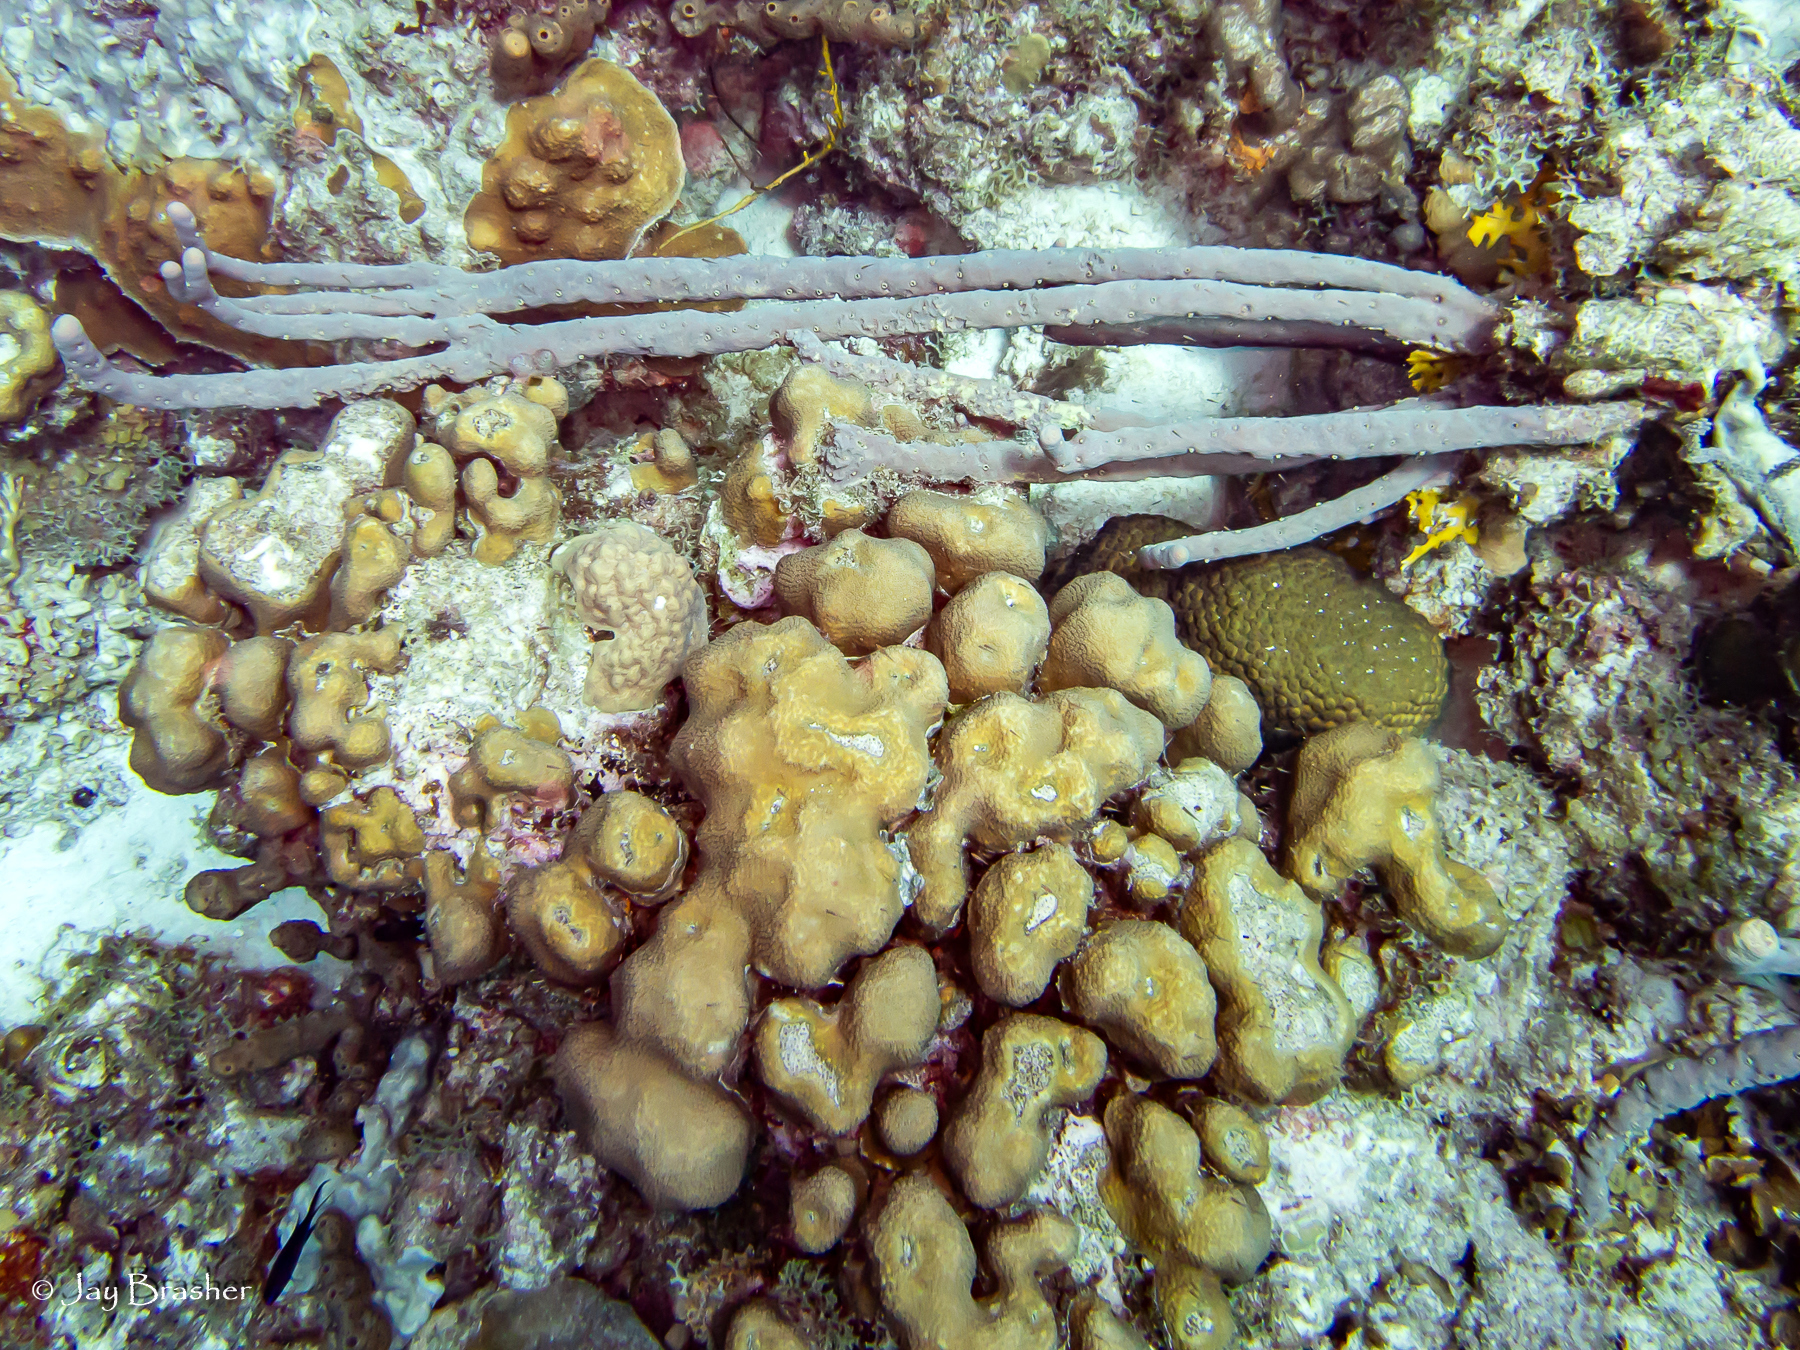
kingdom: Animalia
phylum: Porifera
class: Demospongiae
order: Verongiida
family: Aplysinidae
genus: Aplysina
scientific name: Aplysina cauliformis
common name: Branching candle sponge
